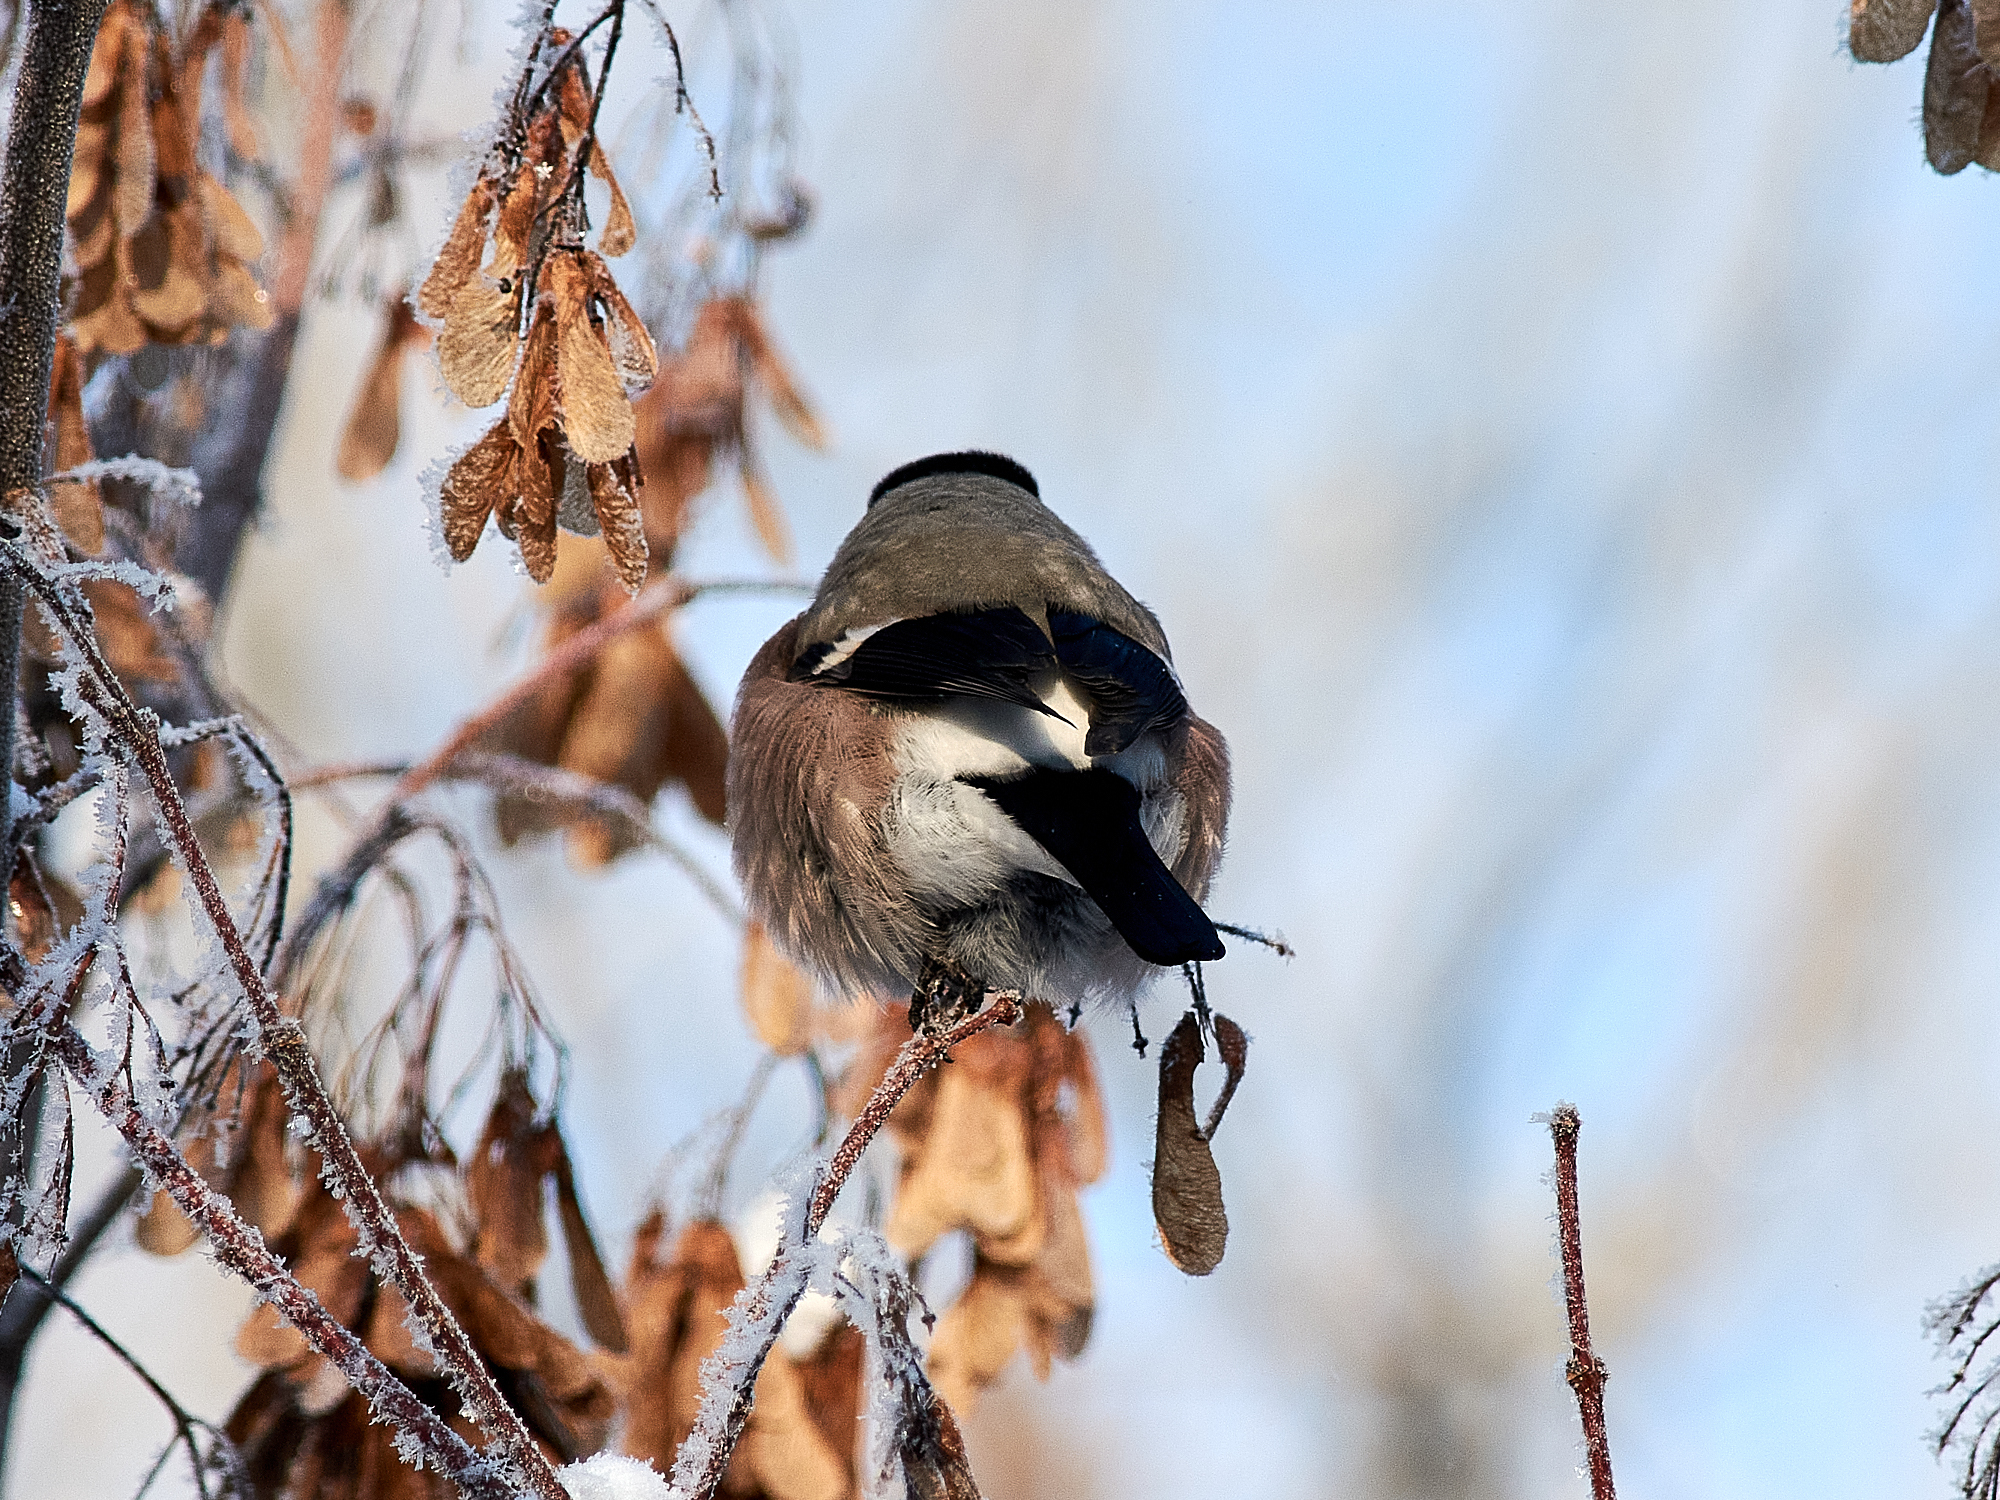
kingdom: Animalia
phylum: Chordata
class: Aves
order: Passeriformes
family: Fringillidae
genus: Pyrrhula
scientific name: Pyrrhula pyrrhula
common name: Eurasian bullfinch
